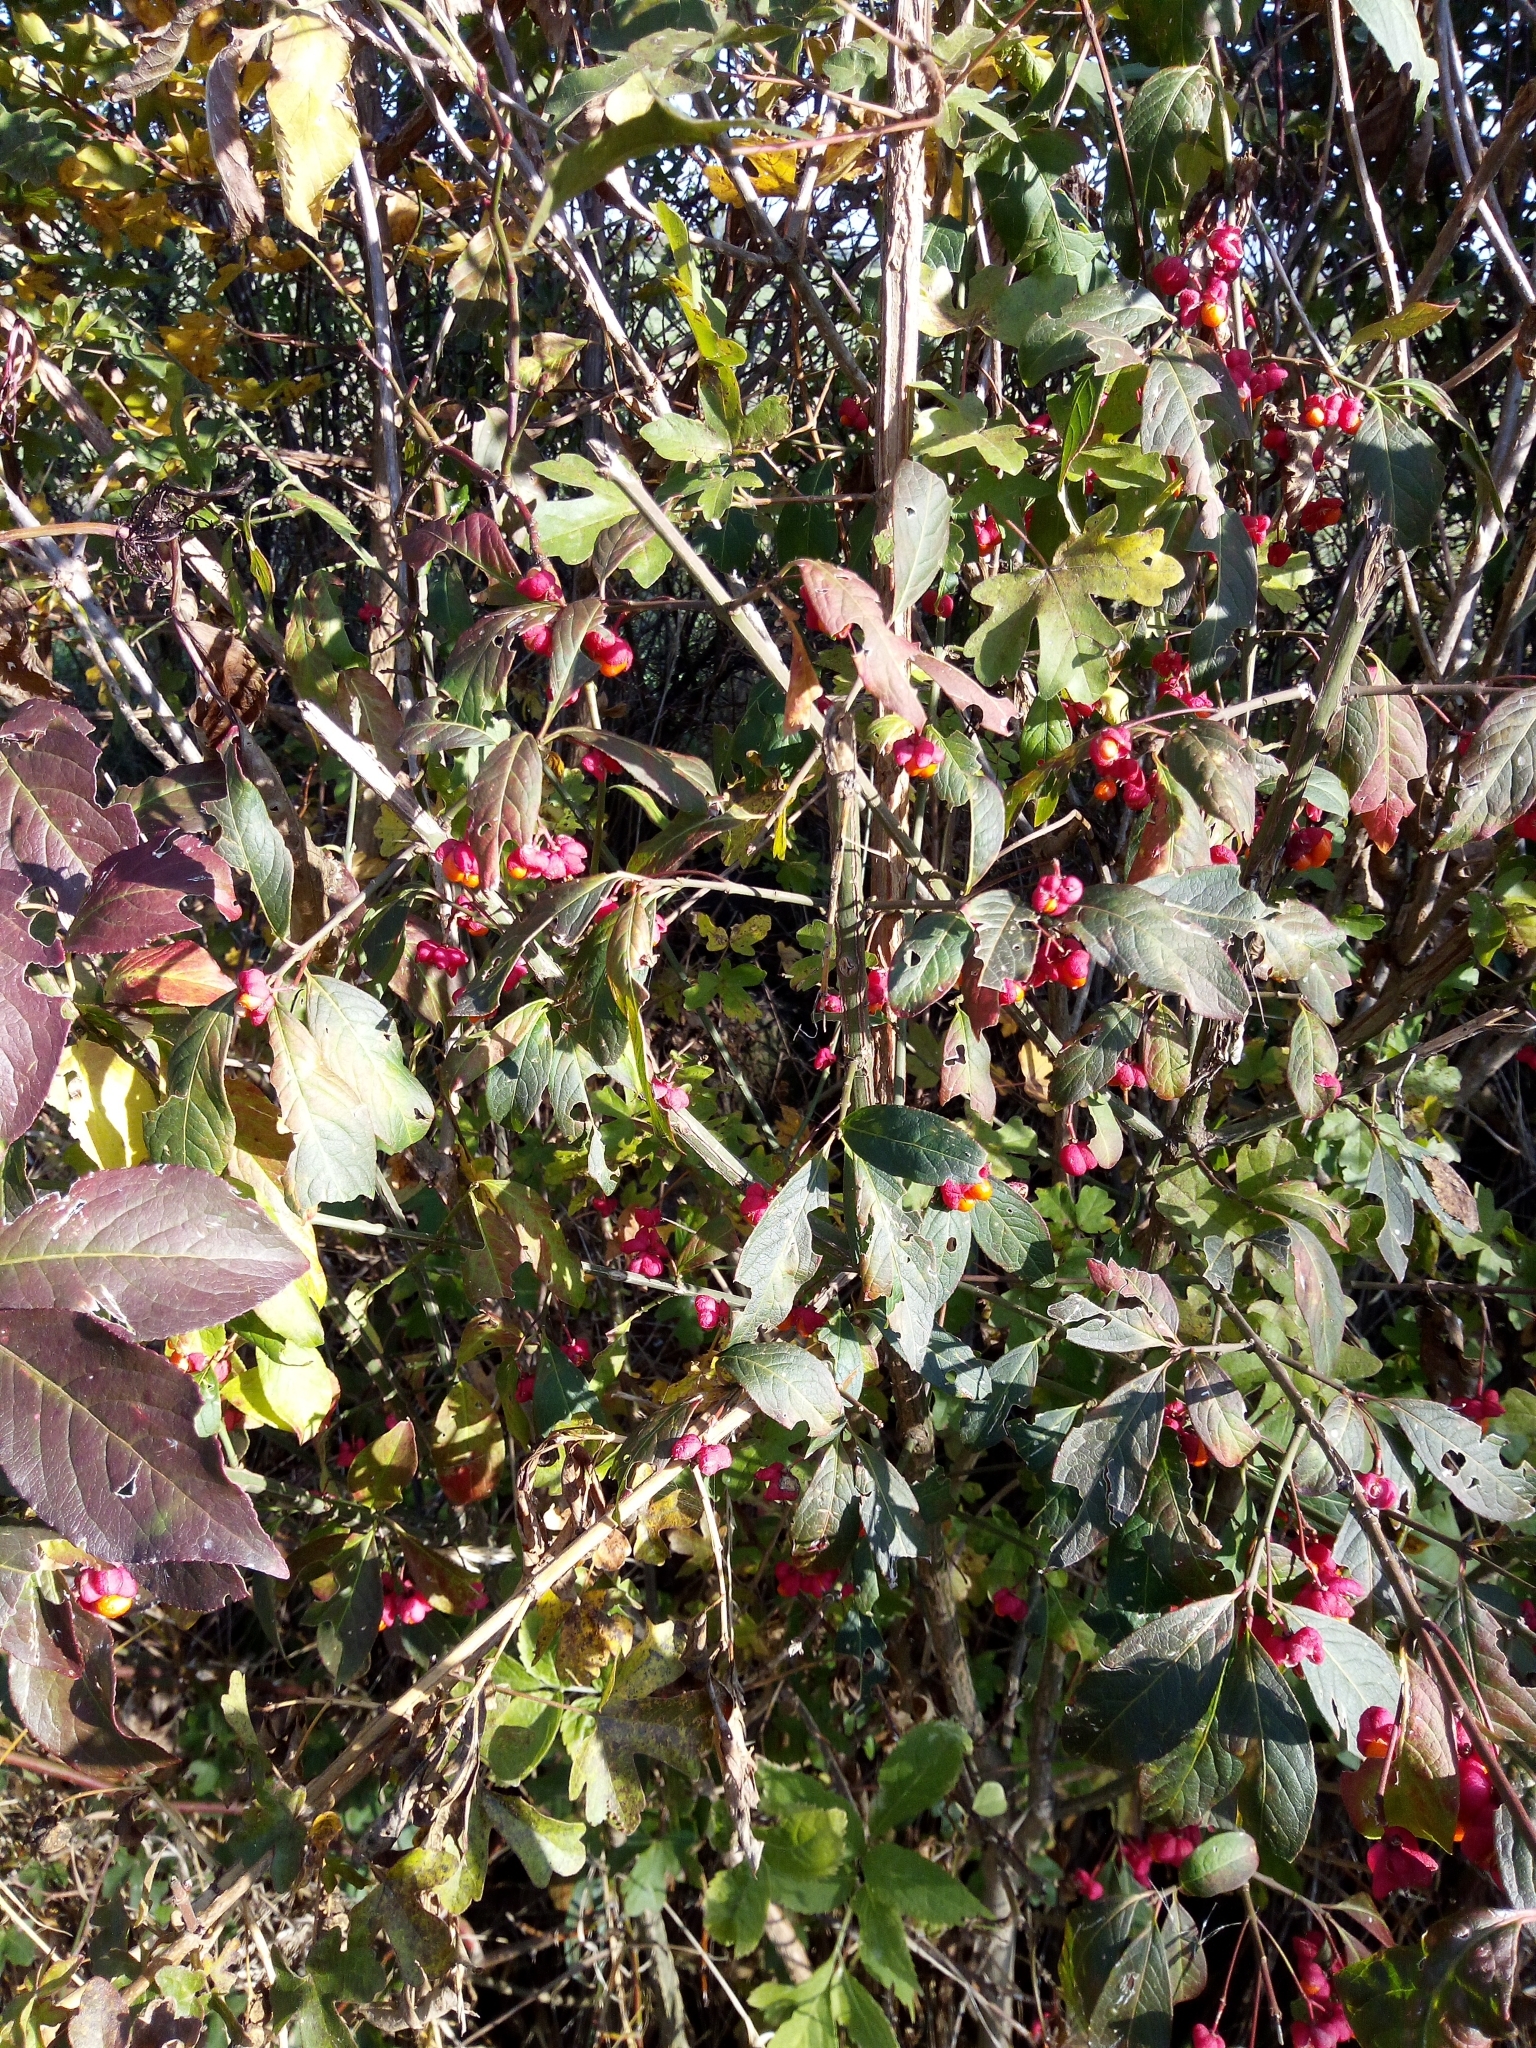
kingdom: Plantae
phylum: Tracheophyta
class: Magnoliopsida
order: Celastrales
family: Celastraceae
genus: Euonymus
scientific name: Euonymus europaeus
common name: Spindle
